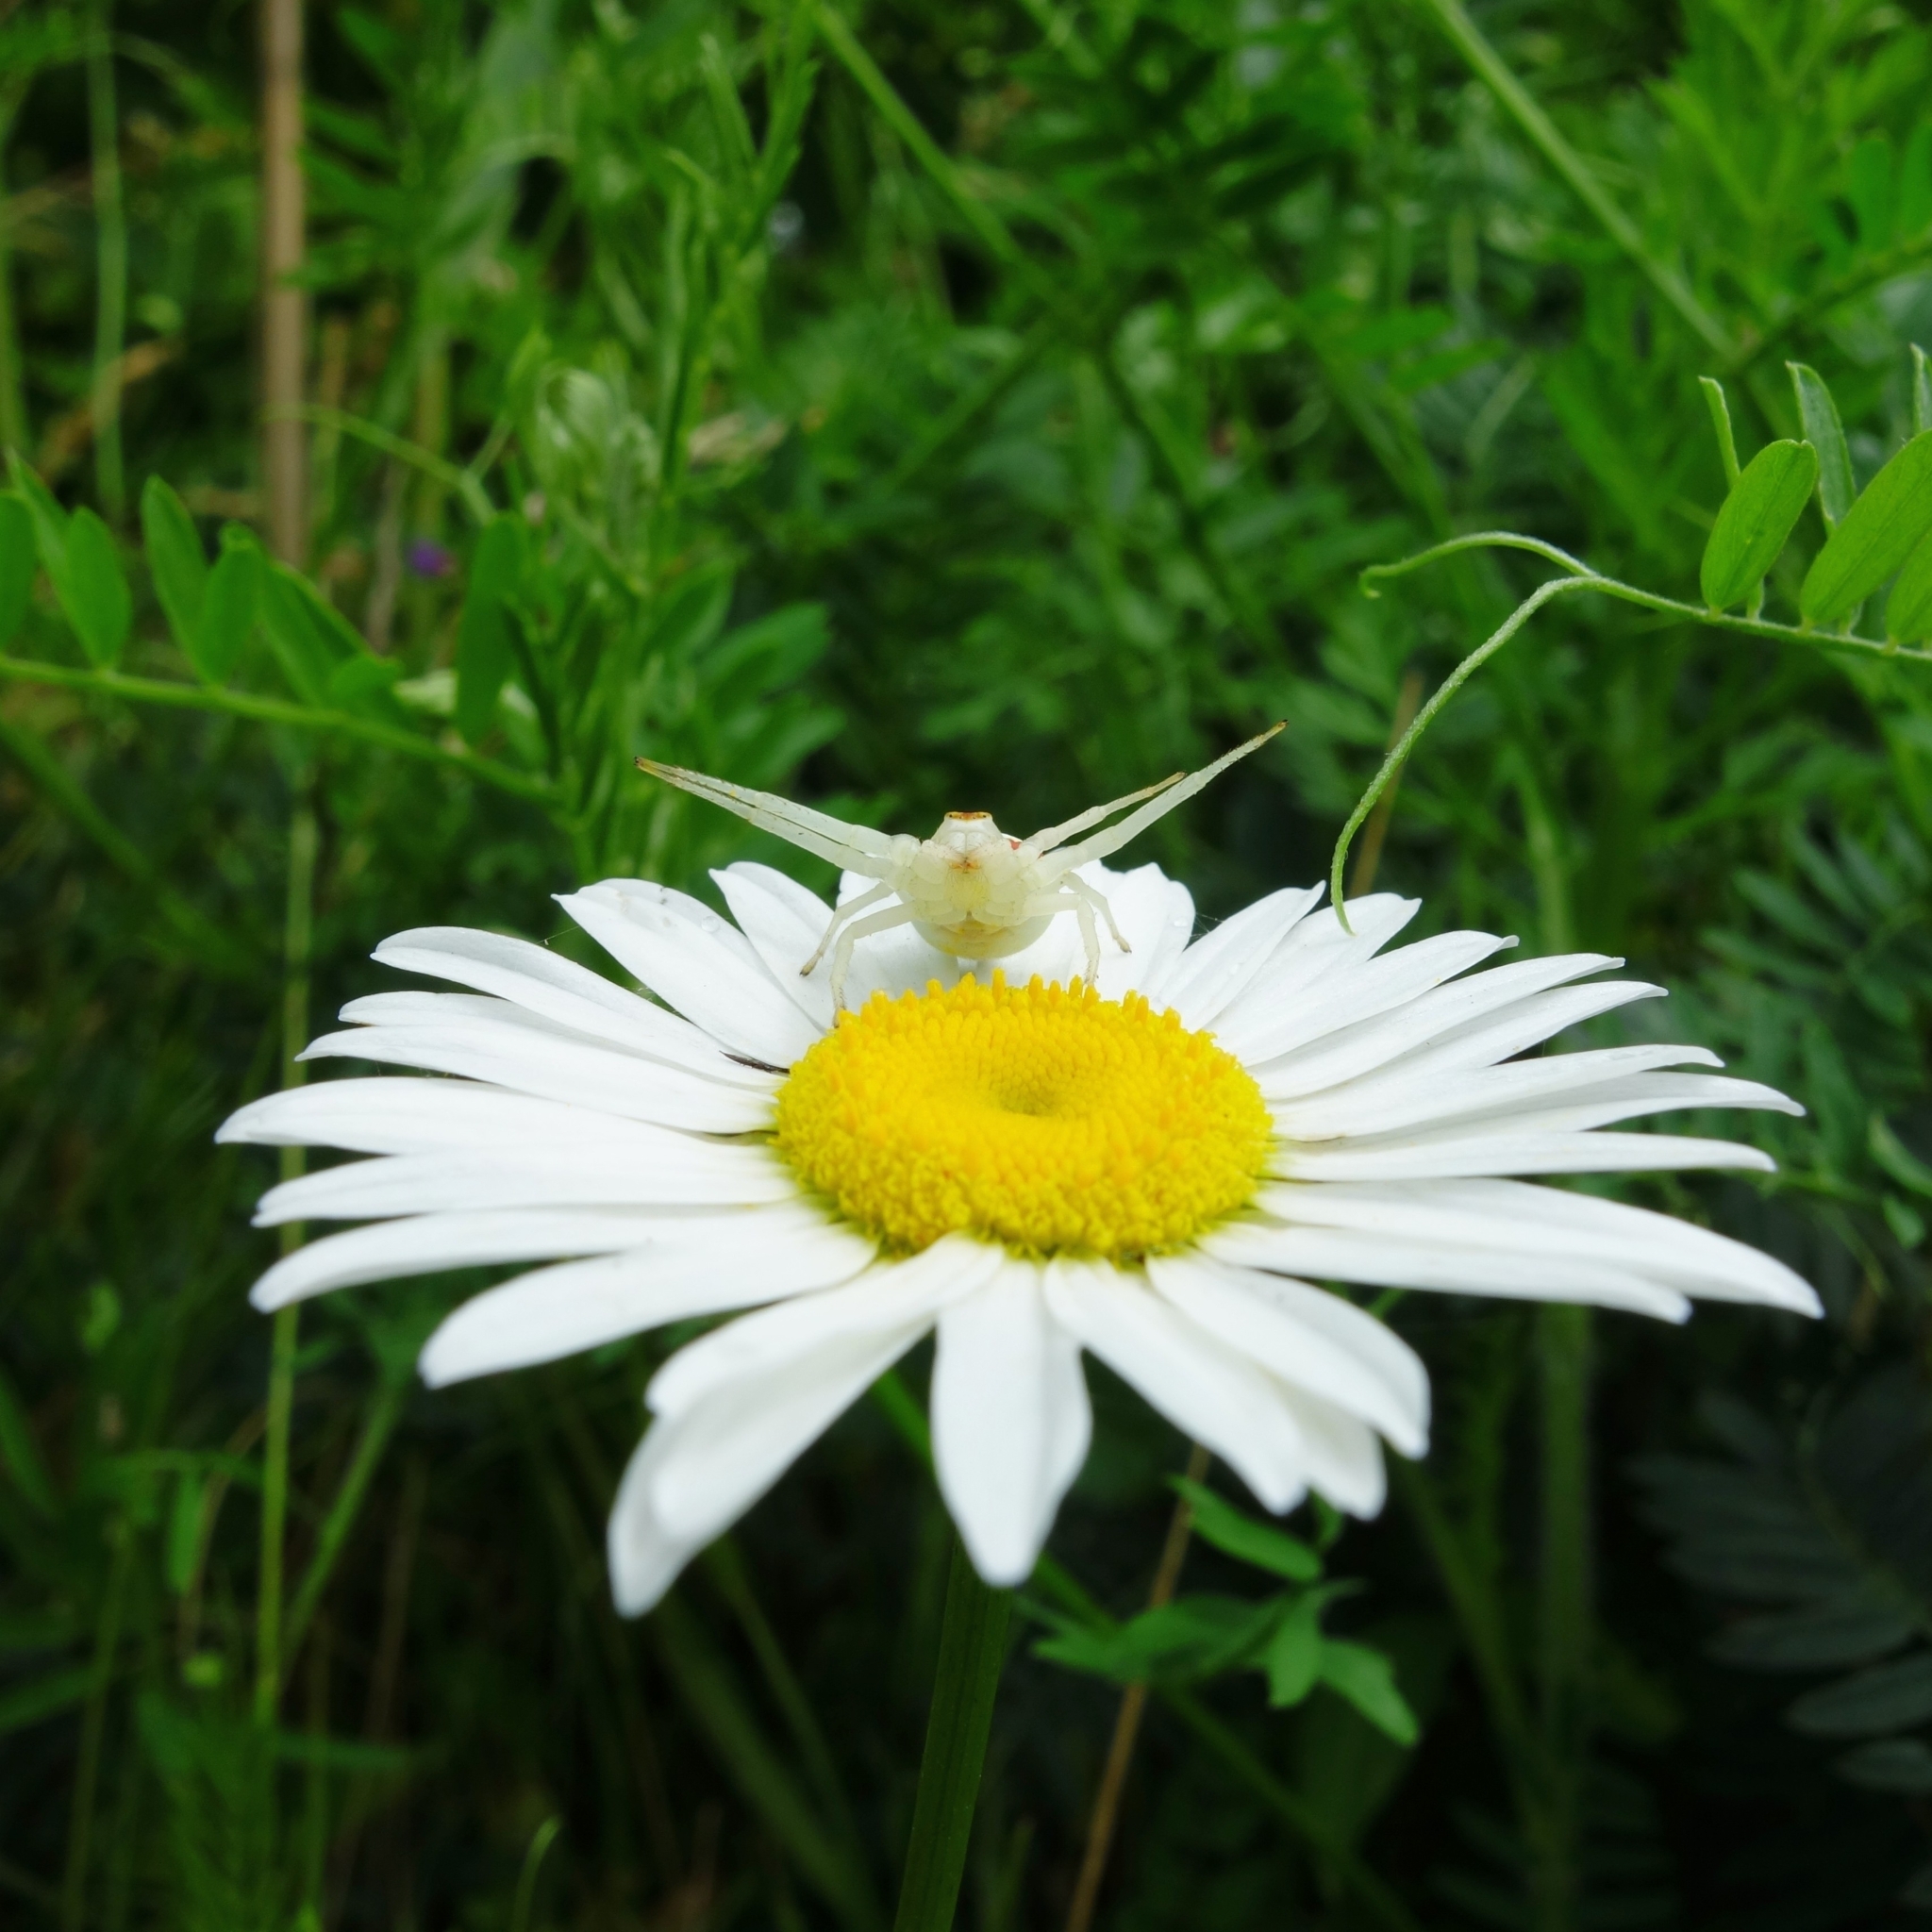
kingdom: Animalia
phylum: Arthropoda
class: Arachnida
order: Araneae
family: Thomisidae
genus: Misumena
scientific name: Misumena vatia
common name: Goldenrod crab spider
